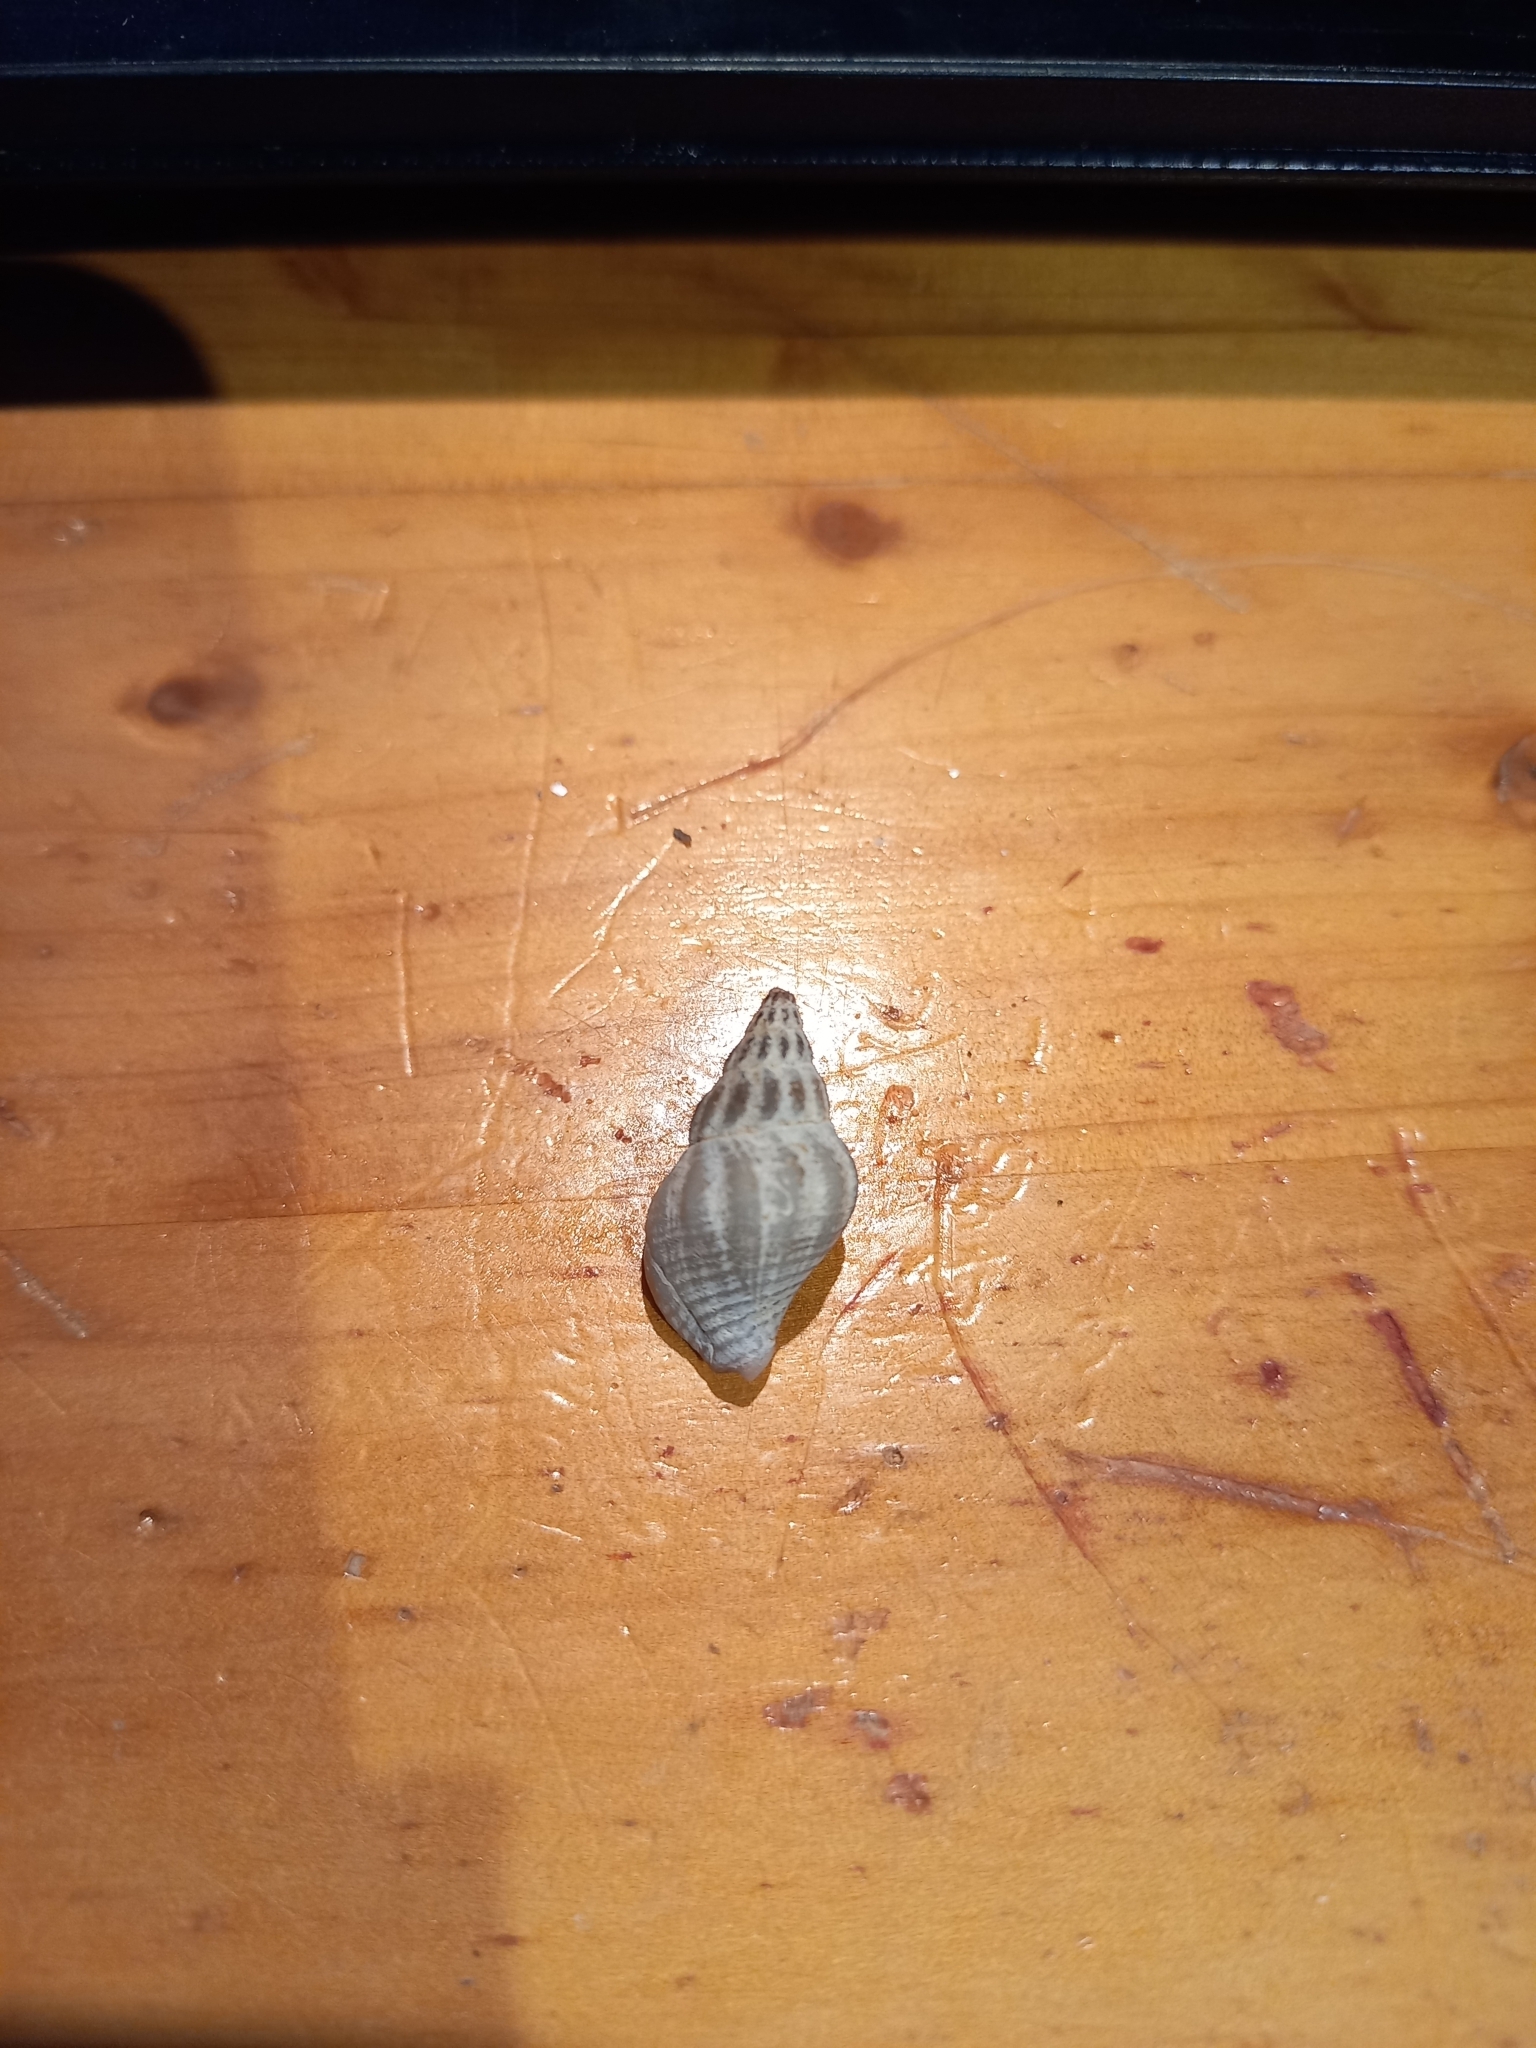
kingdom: Animalia
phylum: Mollusca
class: Gastropoda
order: Neogastropoda
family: Tudiclidae
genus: Buccinulum
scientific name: Buccinulum littorinoides
